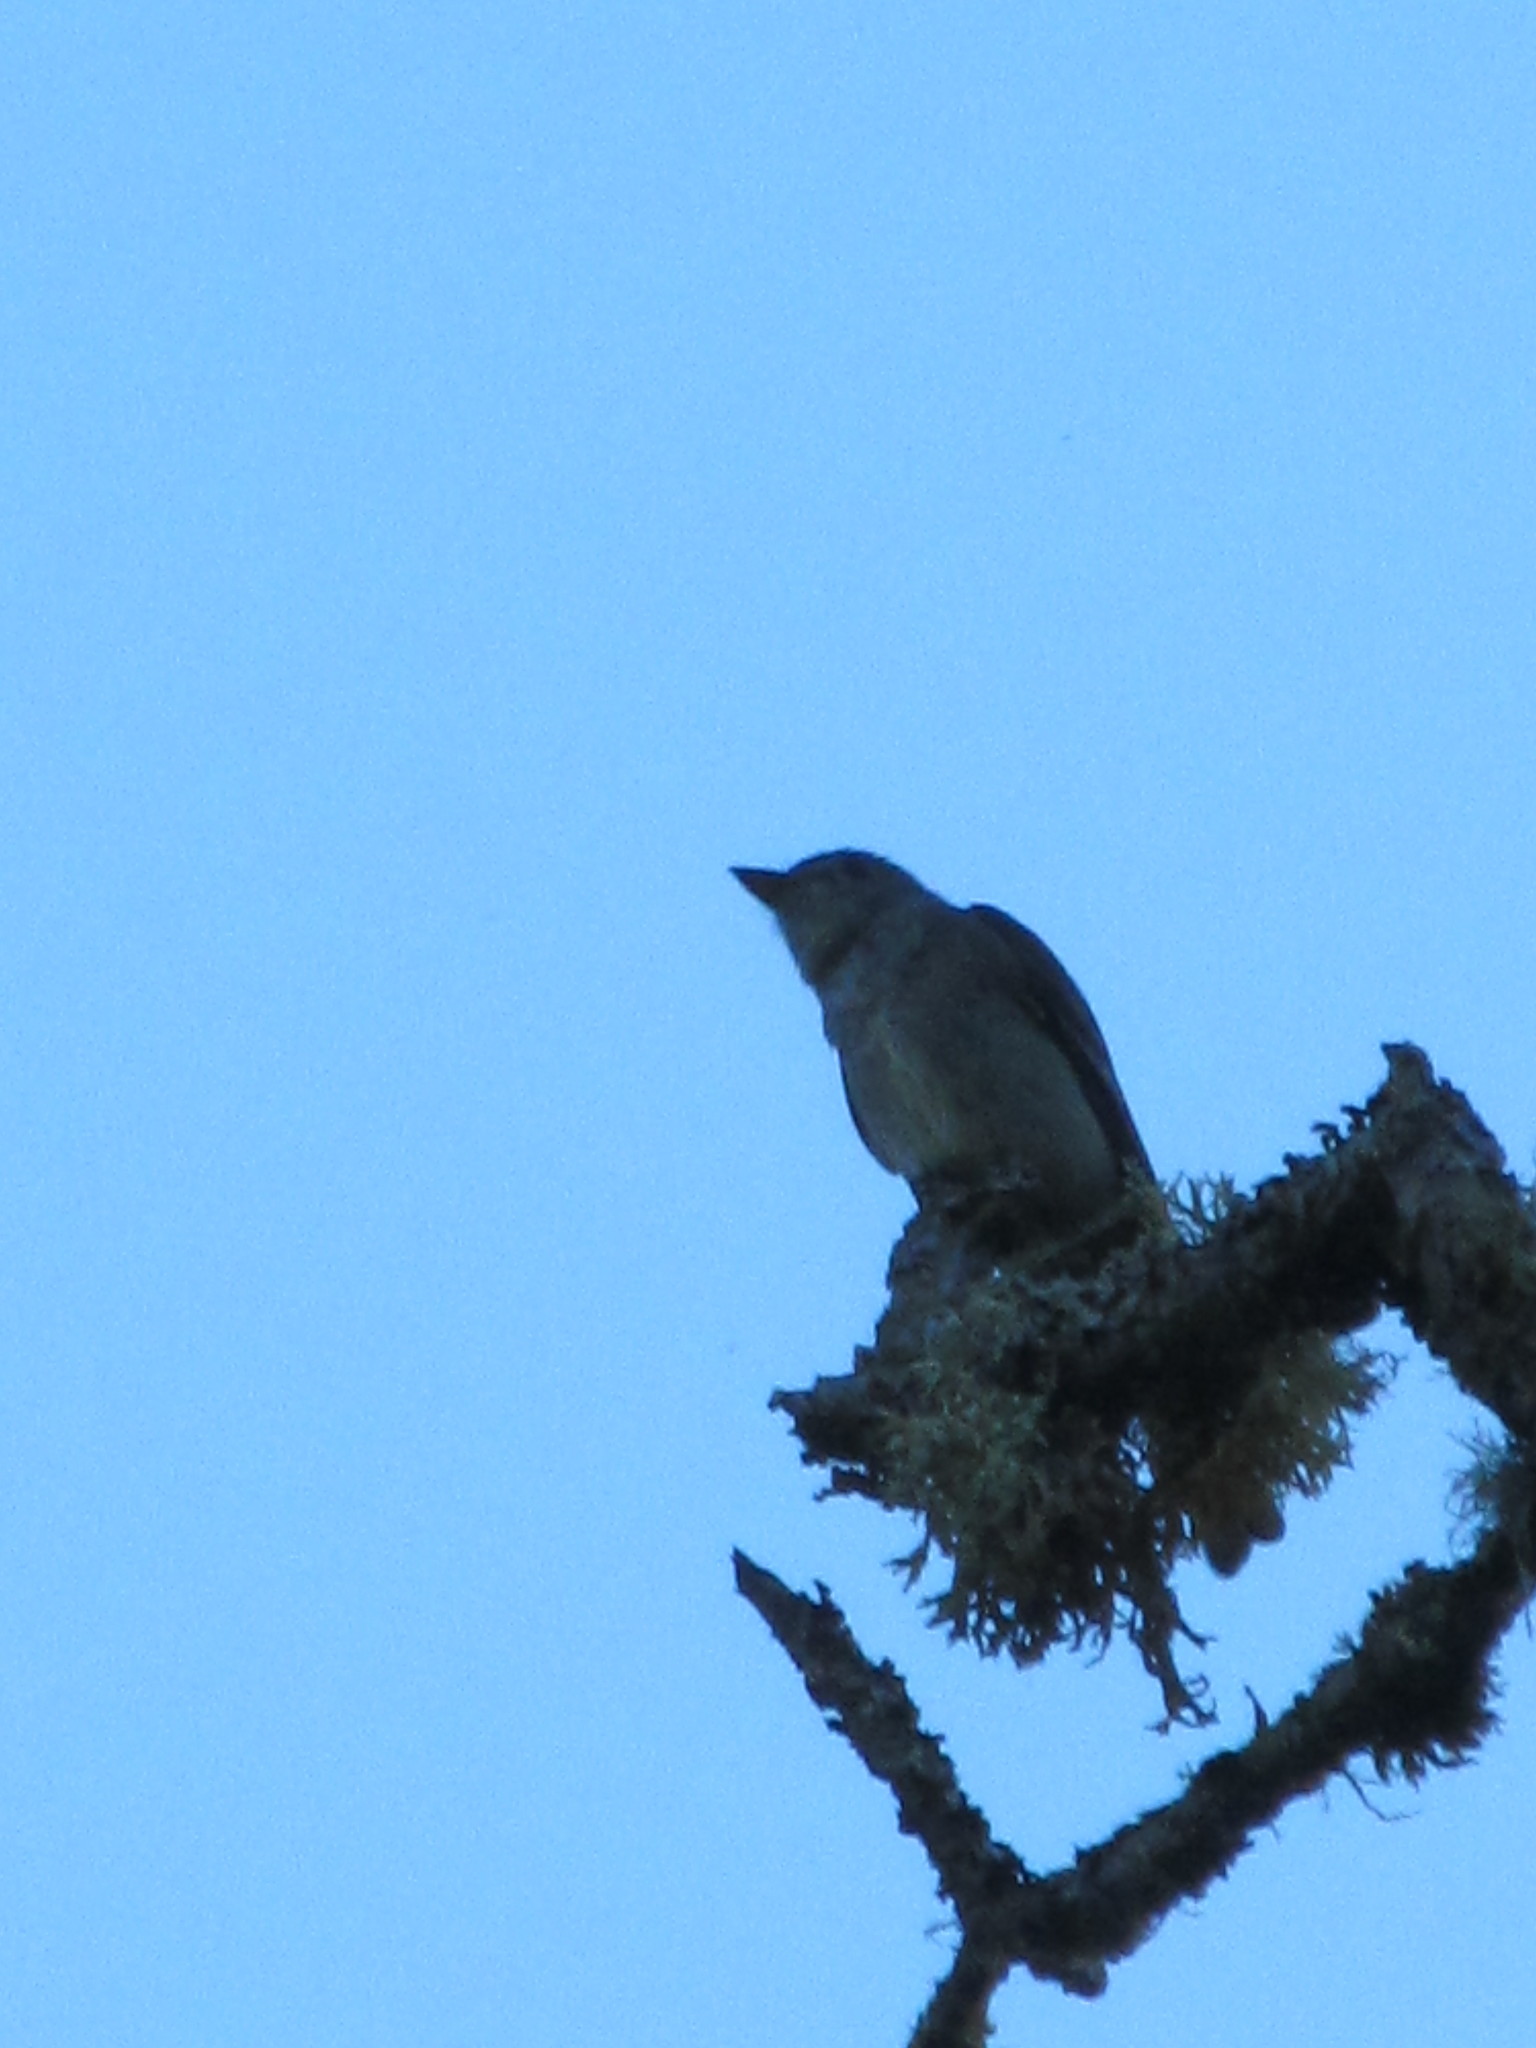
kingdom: Animalia
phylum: Chordata
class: Aves
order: Passeriformes
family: Tyrannidae
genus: Contopus
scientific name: Contopus sordidulus
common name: Western wood-pewee
